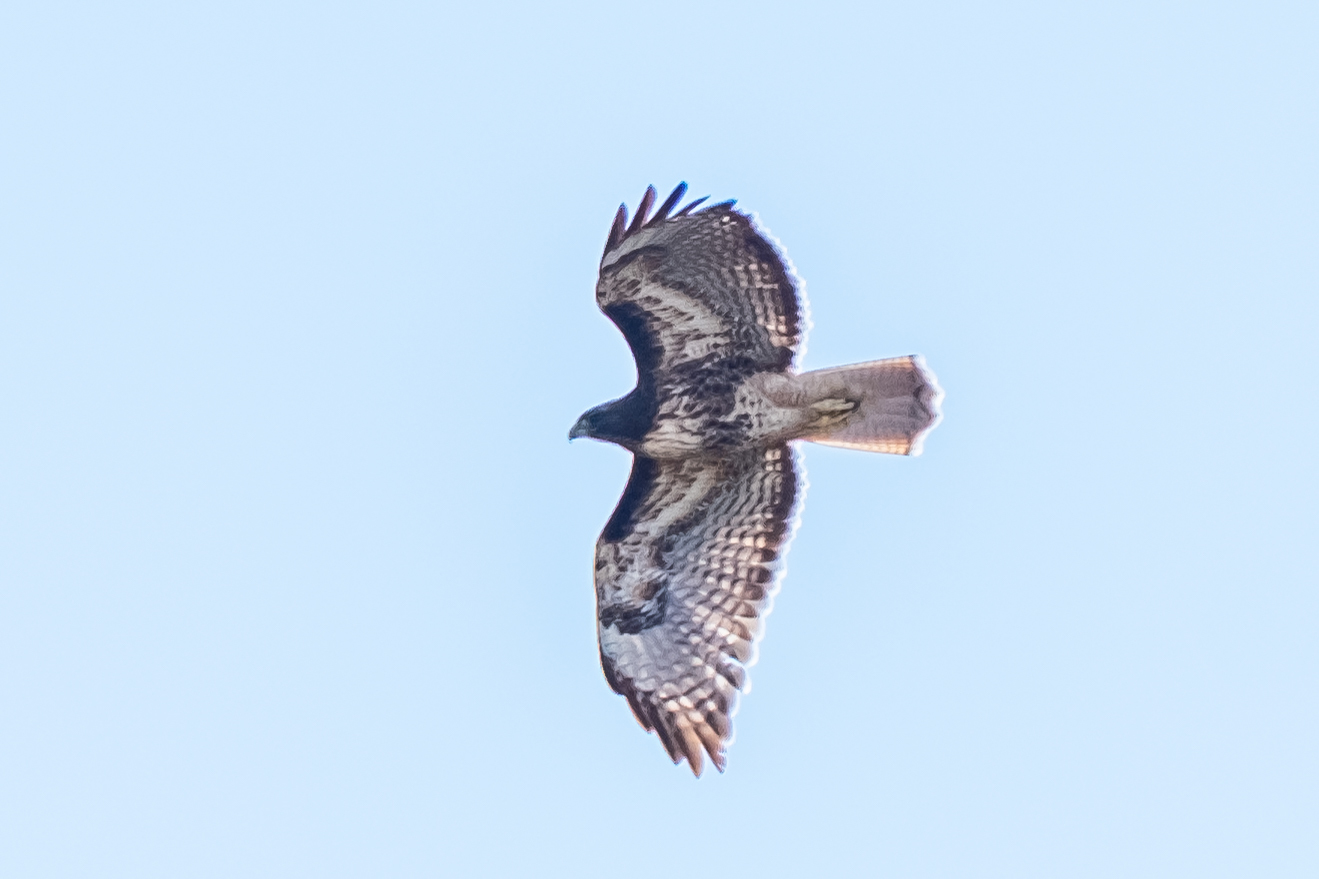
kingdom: Animalia
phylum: Chordata
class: Aves
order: Accipitriformes
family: Accipitridae
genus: Buteo
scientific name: Buteo jamaicensis
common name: Red-tailed hawk
